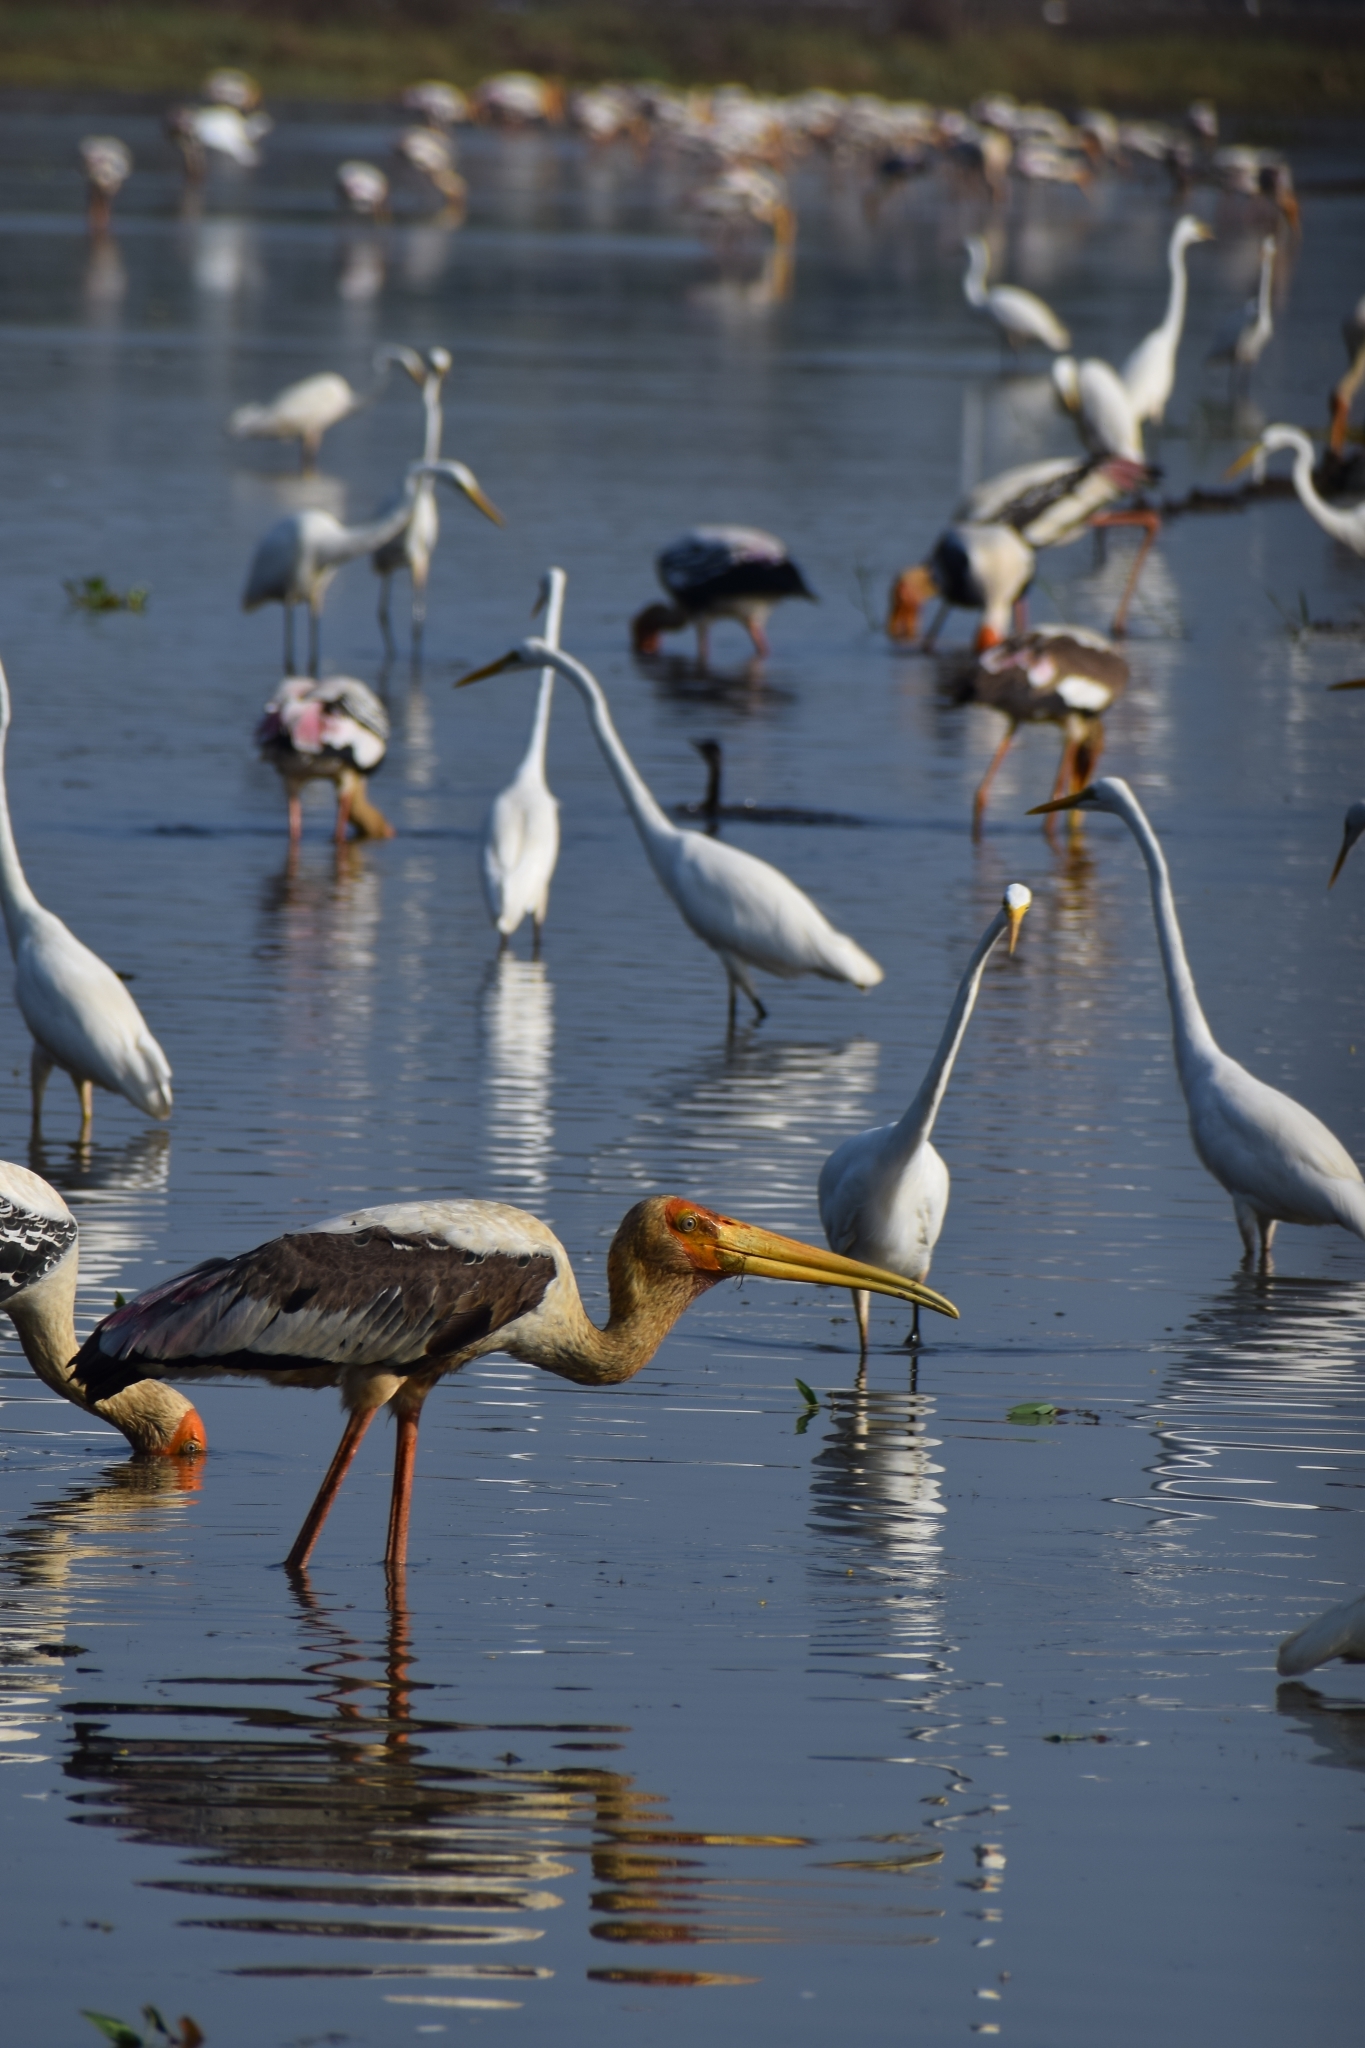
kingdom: Animalia
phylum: Chordata
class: Aves
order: Ciconiiformes
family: Ciconiidae
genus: Mycteria
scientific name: Mycteria leucocephala
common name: Painted stork
